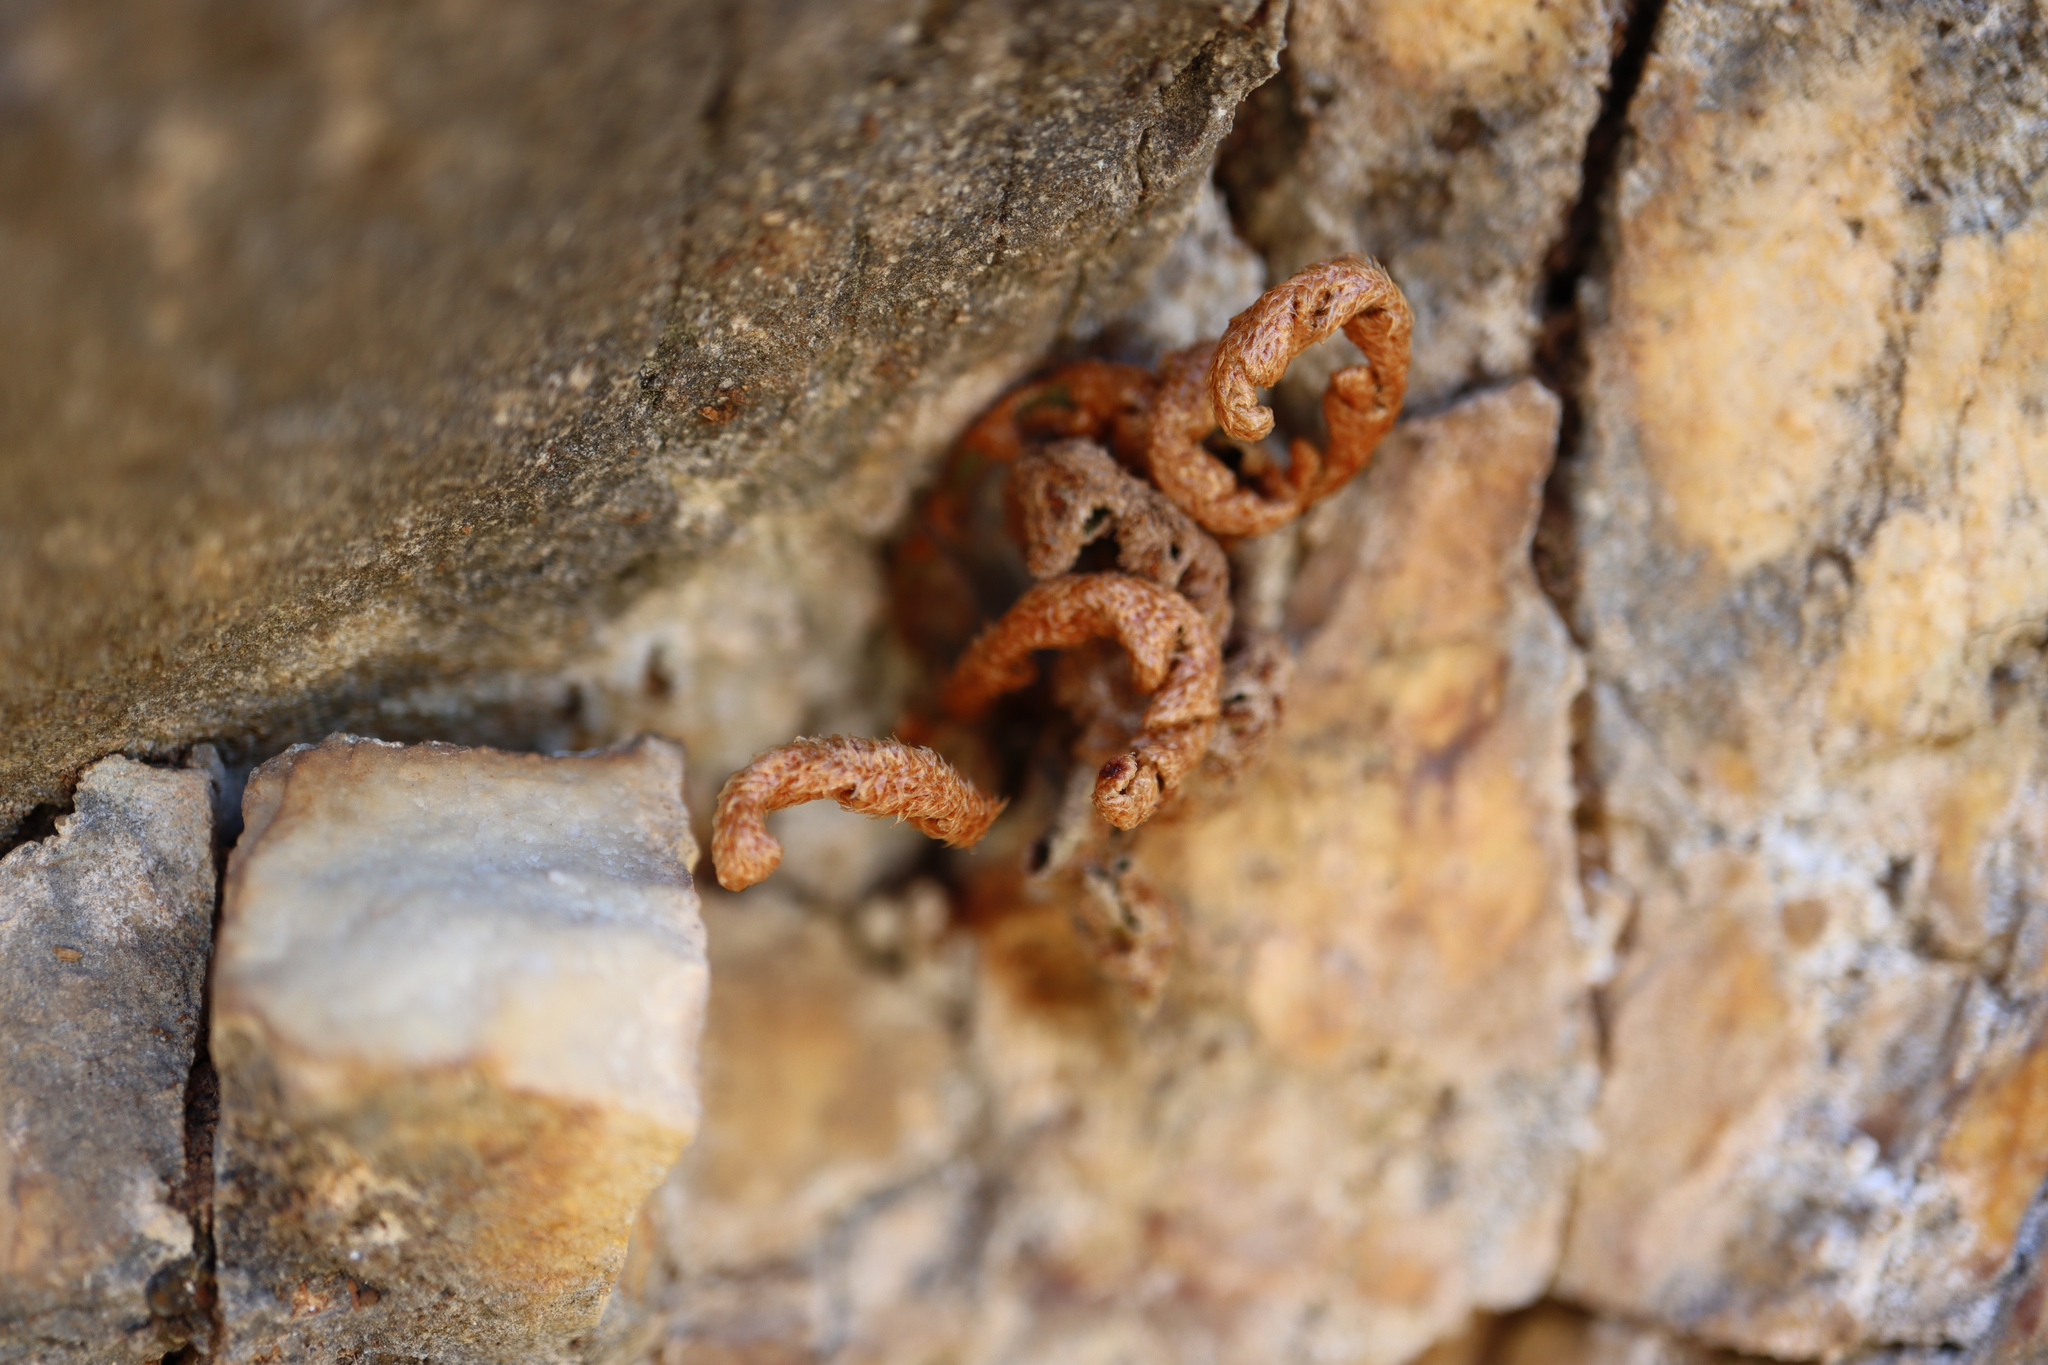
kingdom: Plantae
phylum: Tracheophyta
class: Polypodiopsida
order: Polypodiales
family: Aspleniaceae
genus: Asplenium
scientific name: Asplenium ceterach
